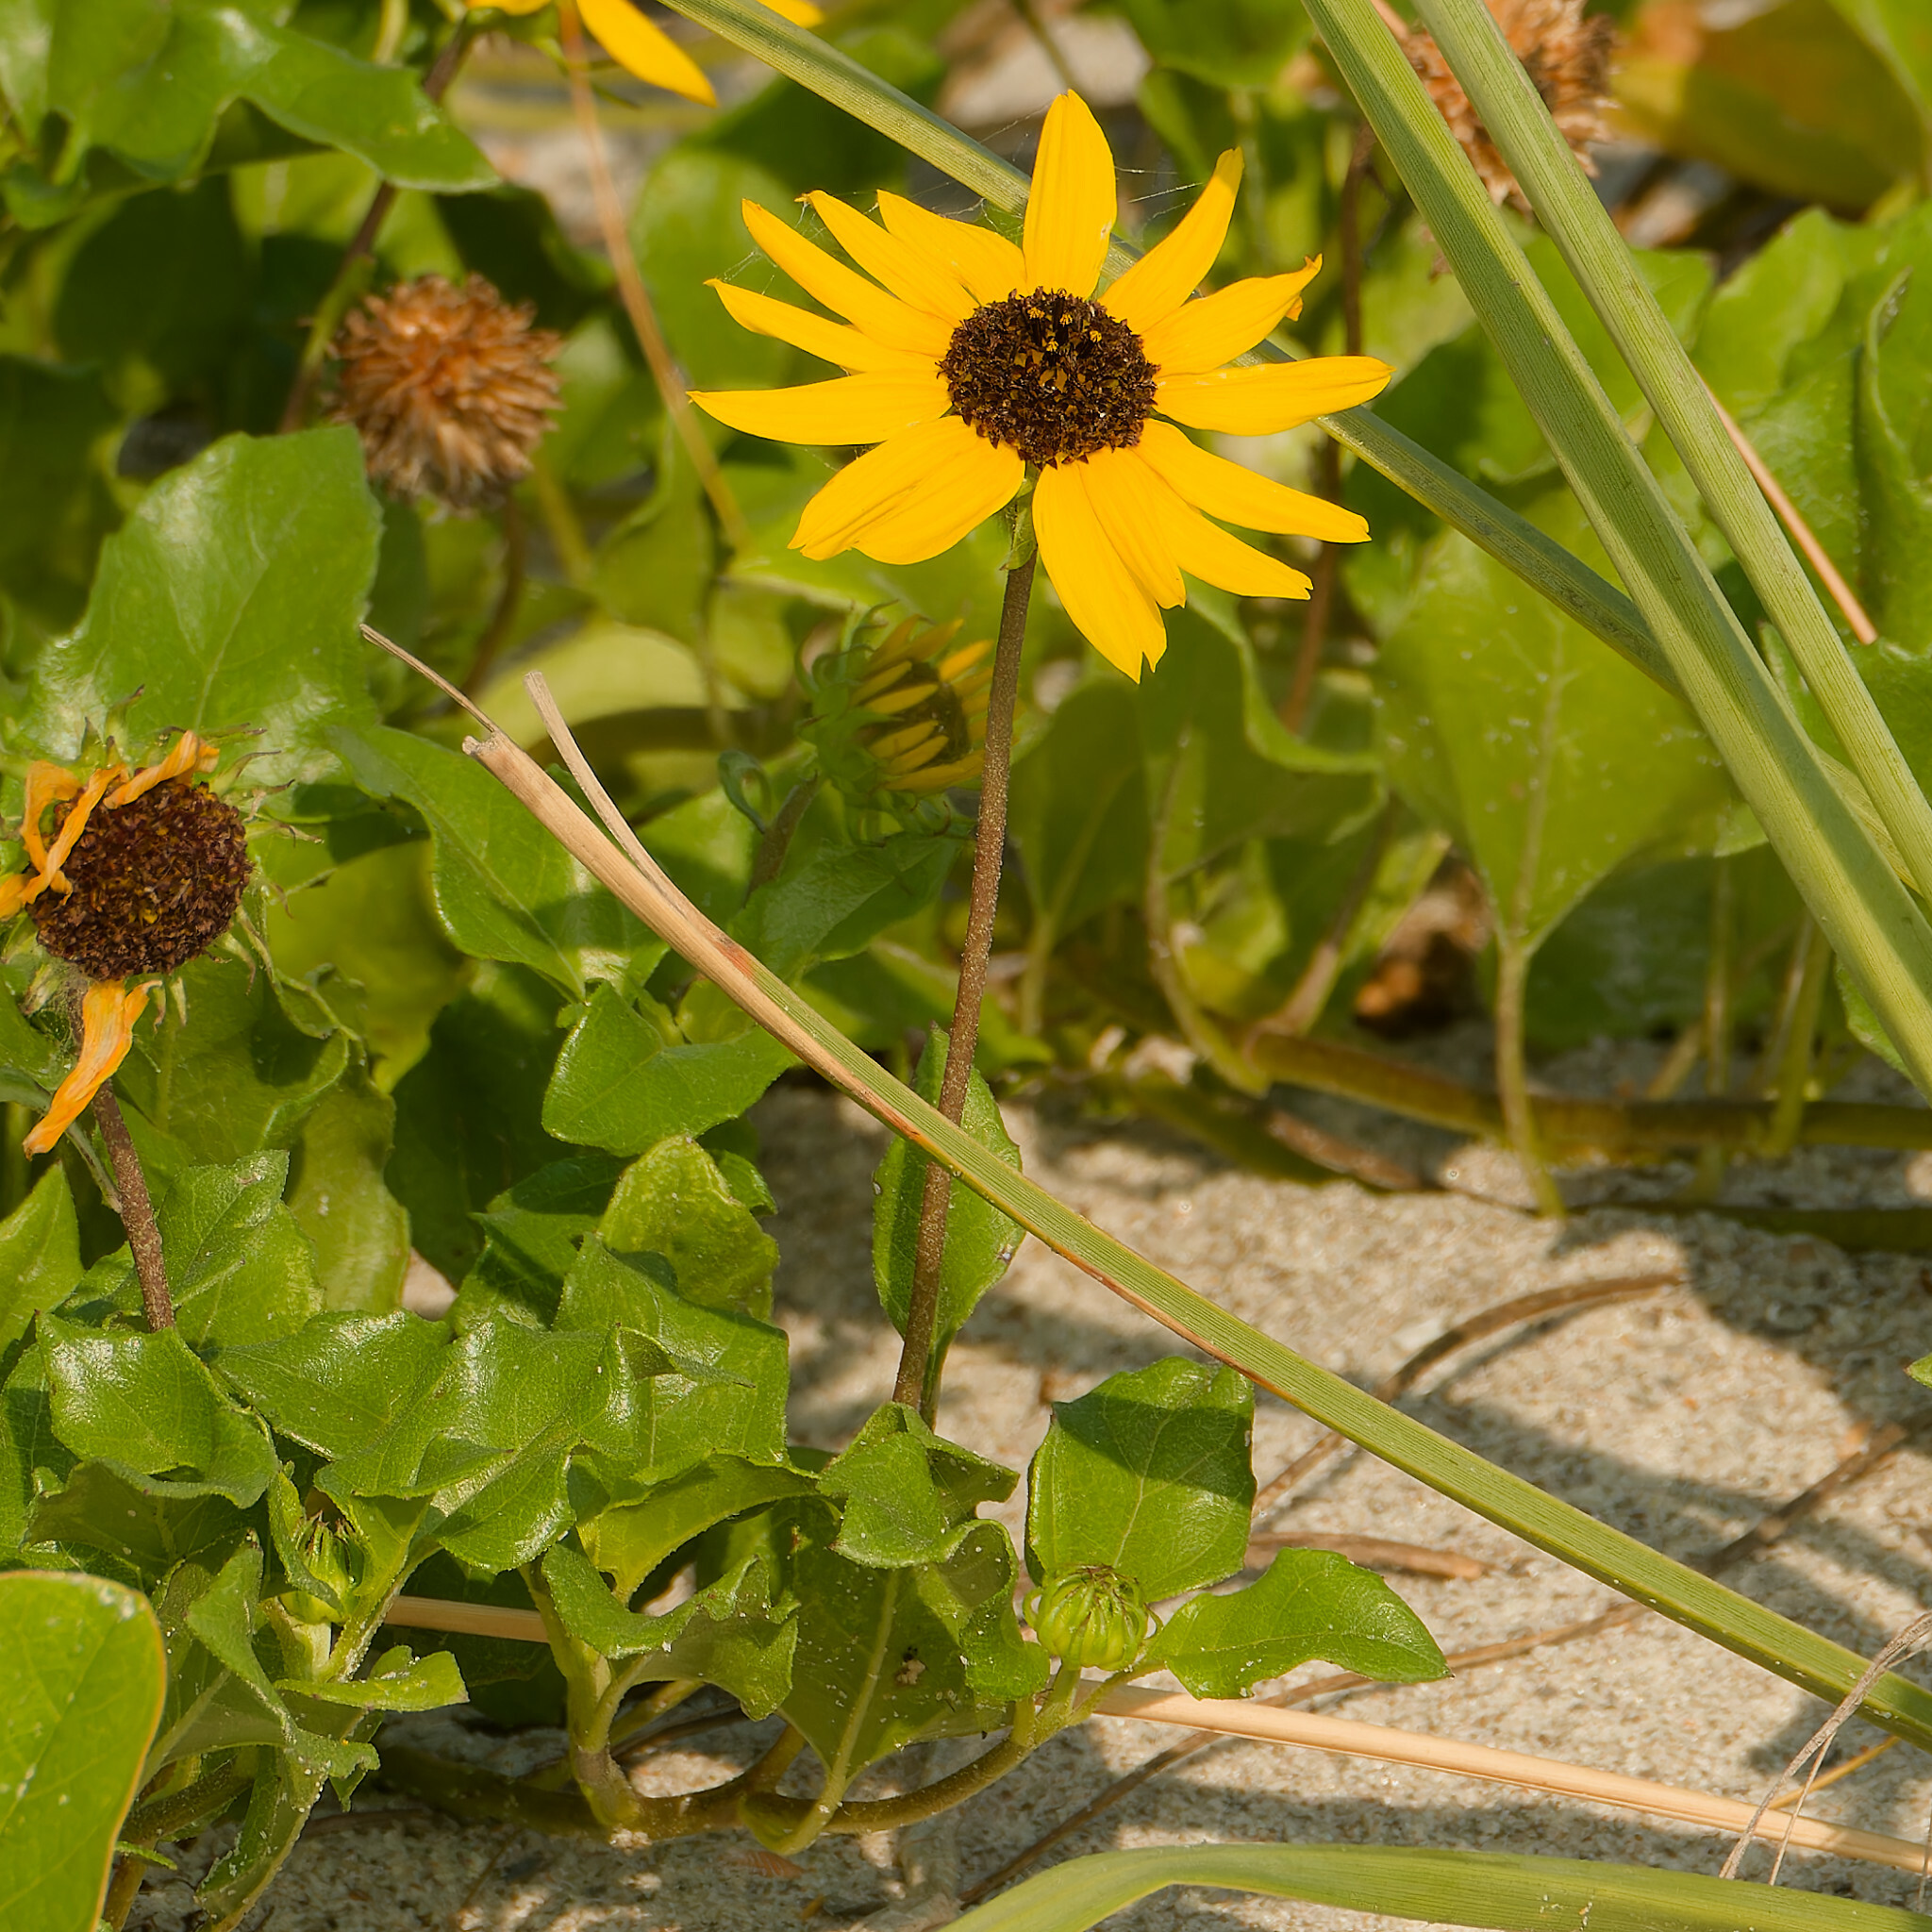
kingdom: Plantae
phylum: Tracheophyta
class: Magnoliopsida
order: Asterales
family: Asteraceae
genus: Helianthus
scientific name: Helianthus debilis
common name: Weak sunflower
